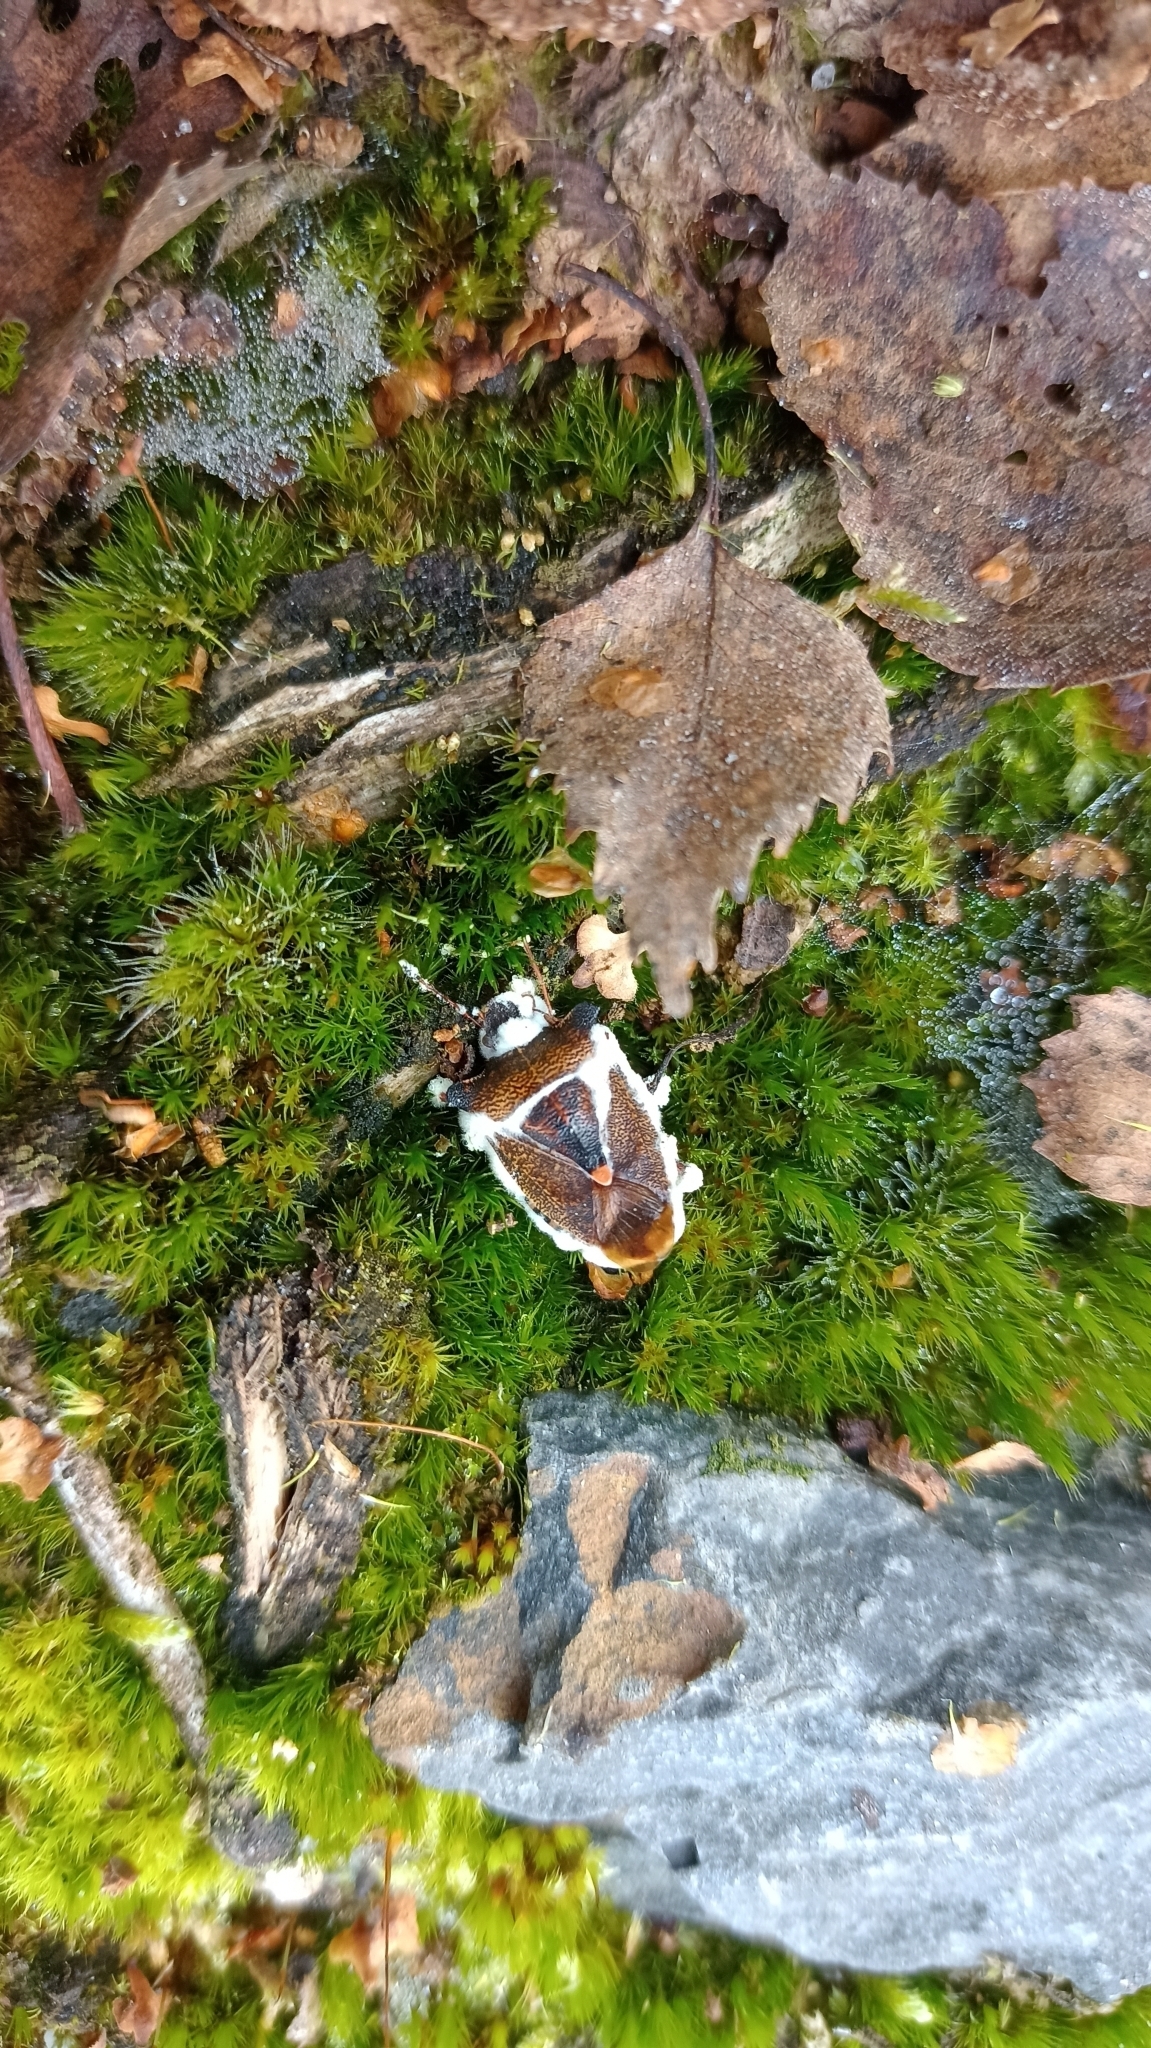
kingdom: Animalia
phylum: Arthropoda
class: Insecta
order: Hemiptera
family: Pentatomidae
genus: Pentatoma
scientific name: Pentatoma rufipes
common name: Forest bug
